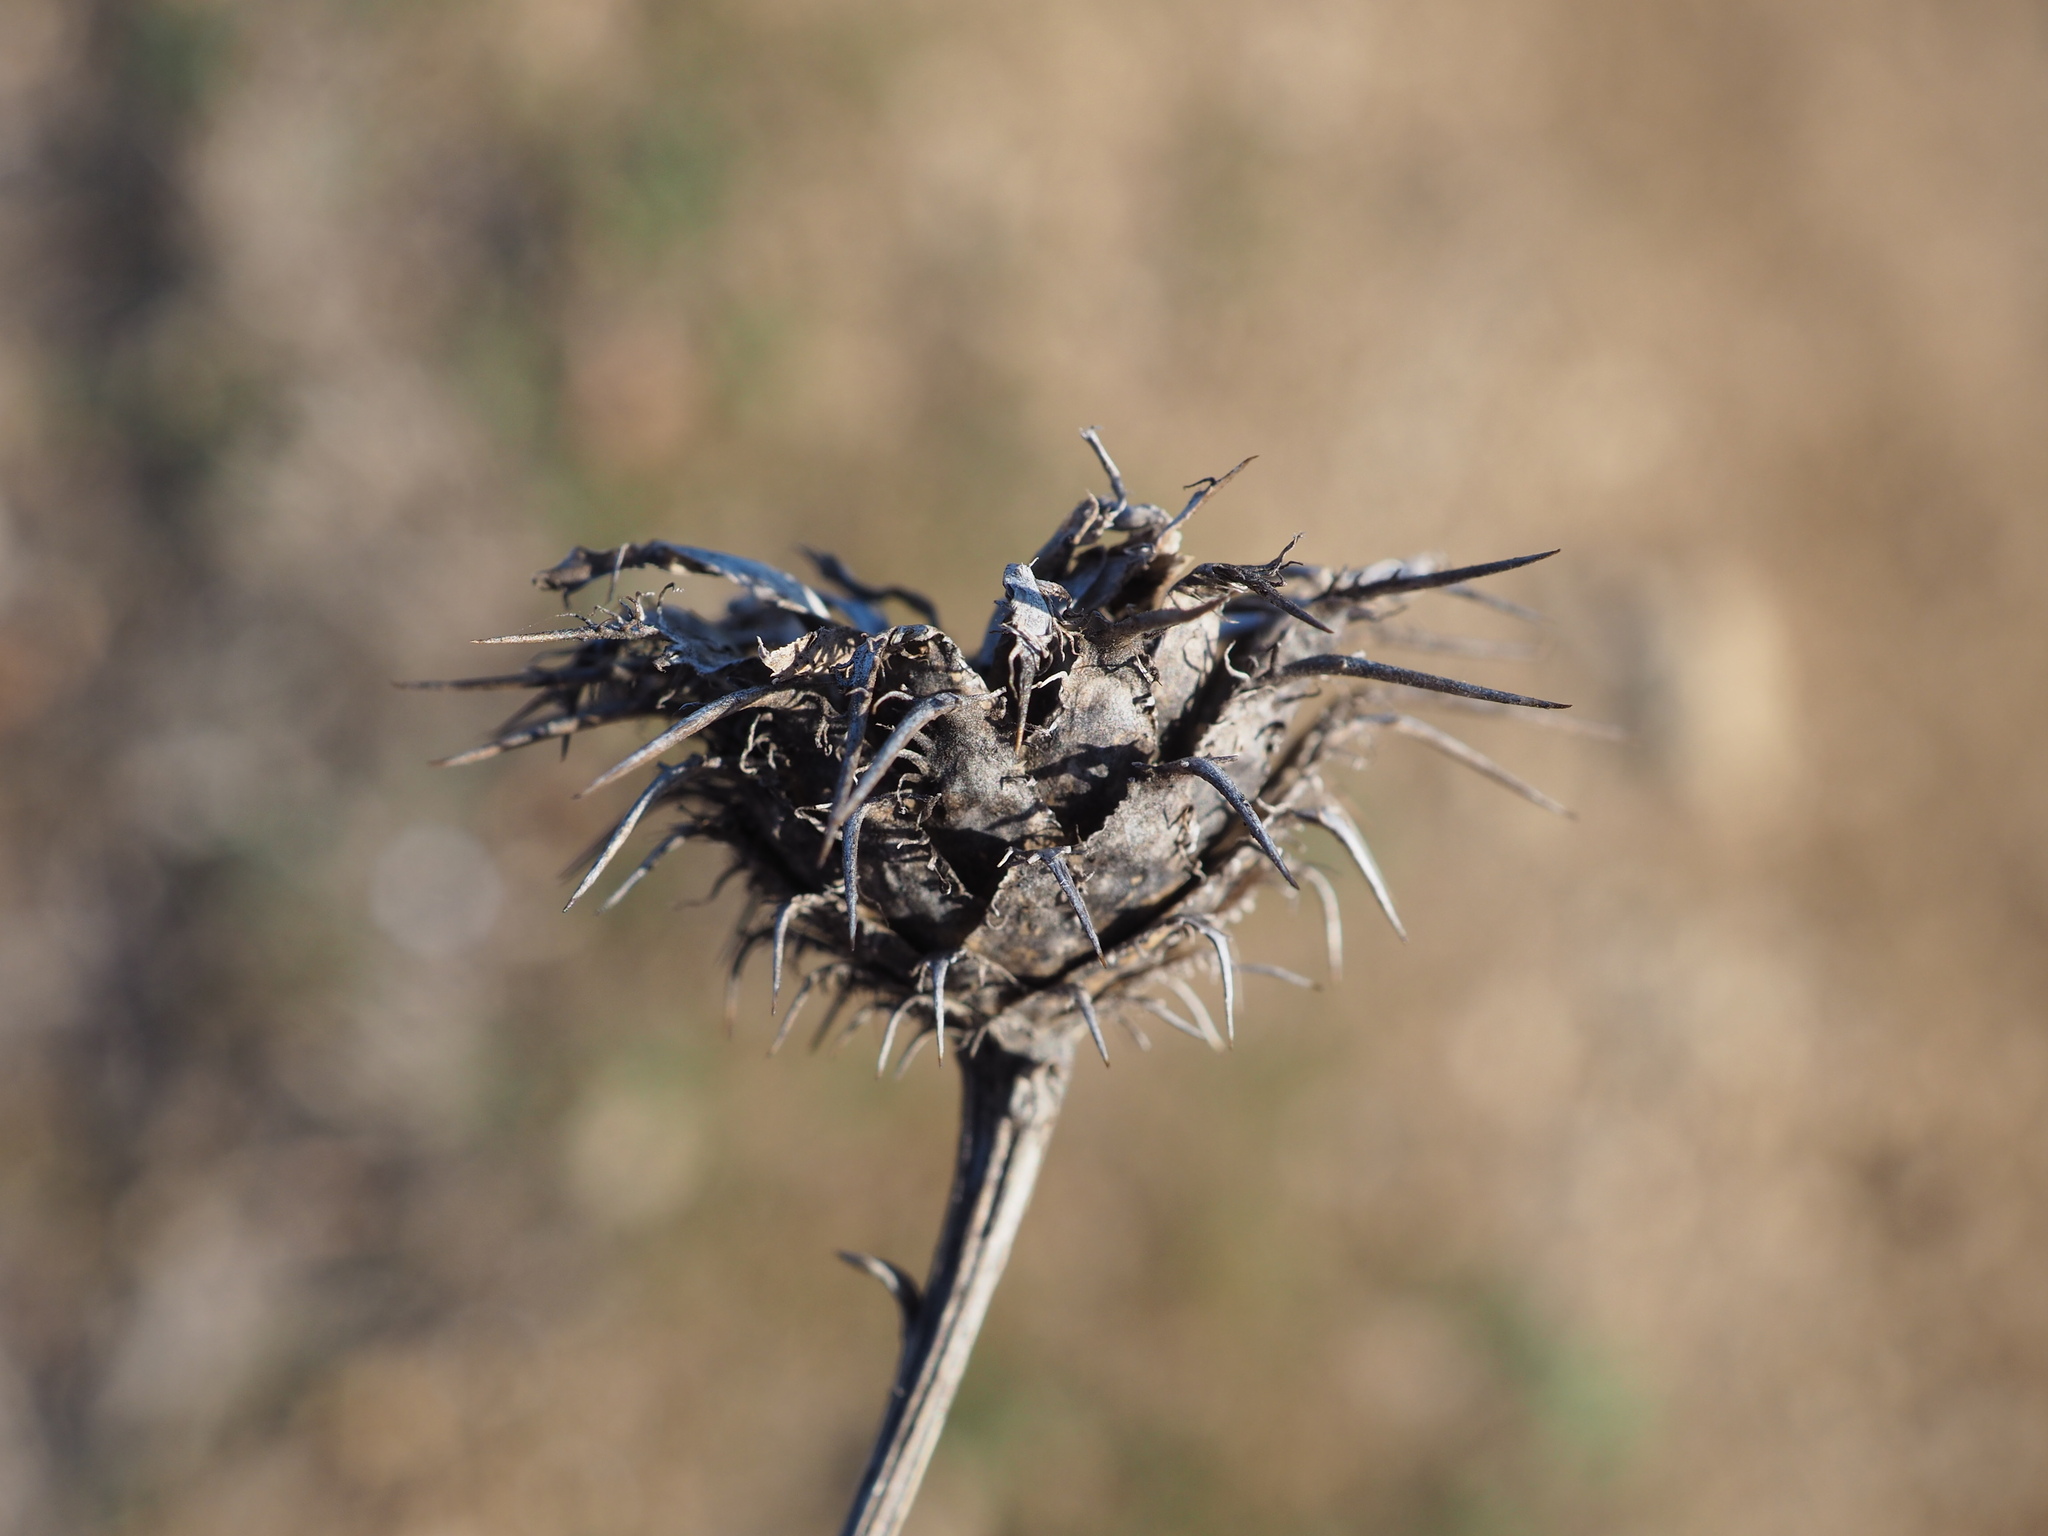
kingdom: Plantae
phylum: Tracheophyta
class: Magnoliopsida
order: Asterales
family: Asteraceae
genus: Centaurea
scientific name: Centaurea collina
